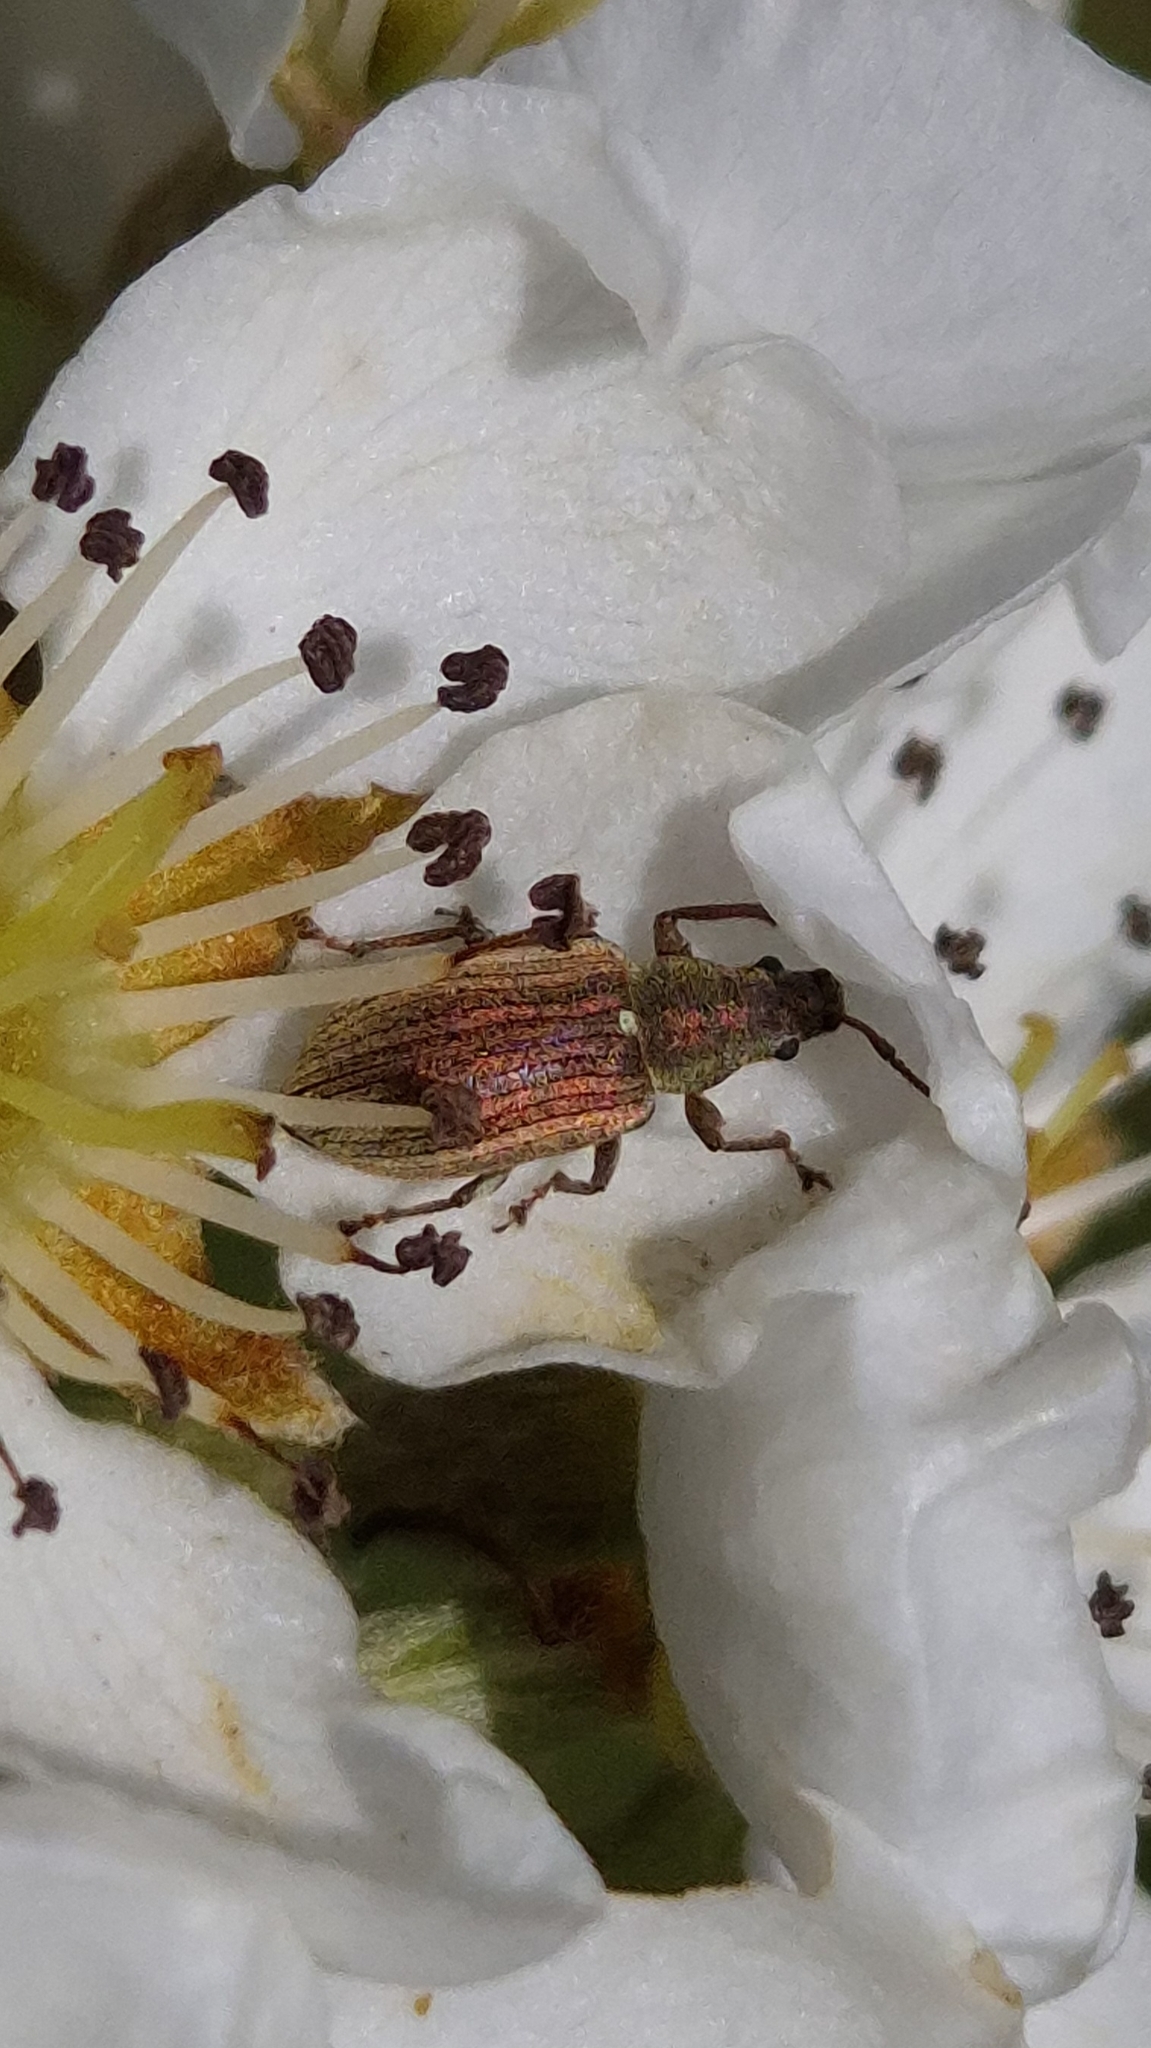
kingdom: Animalia
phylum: Arthropoda
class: Insecta
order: Coleoptera
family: Curculionidae
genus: Phyllobius
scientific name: Phyllobius pyri
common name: Common leaf weevil
